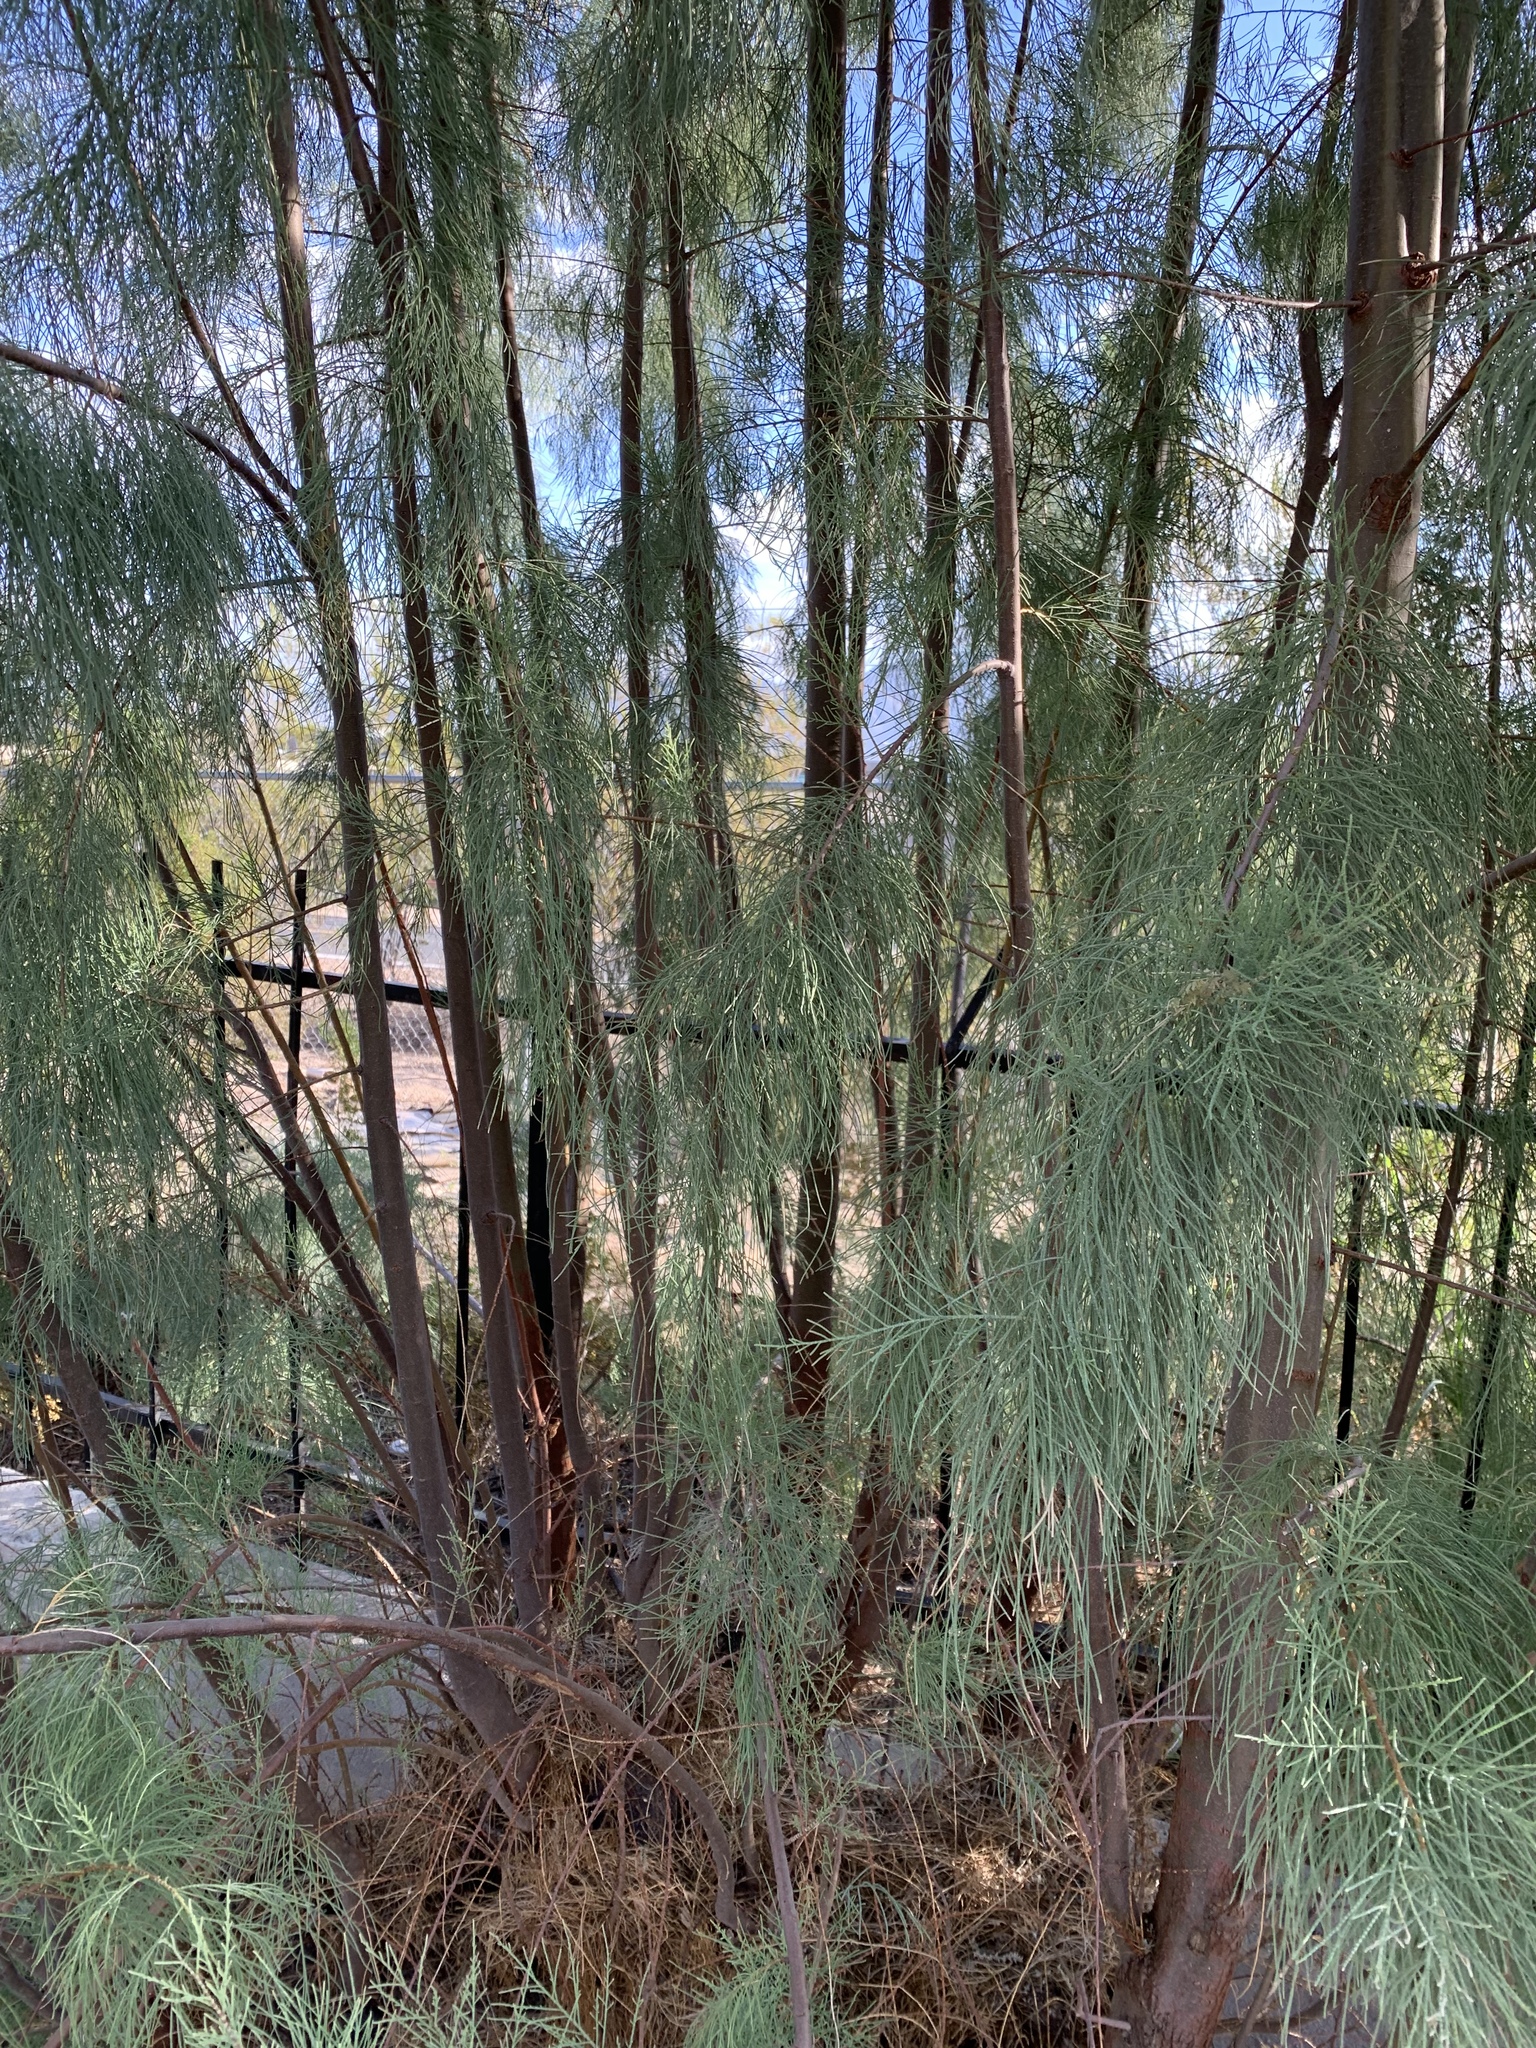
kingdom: Plantae
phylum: Tracheophyta
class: Magnoliopsida
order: Caryophyllales
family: Tamaricaceae
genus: Tamarix
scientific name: Tamarix aphylla
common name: Athel tamarisk
